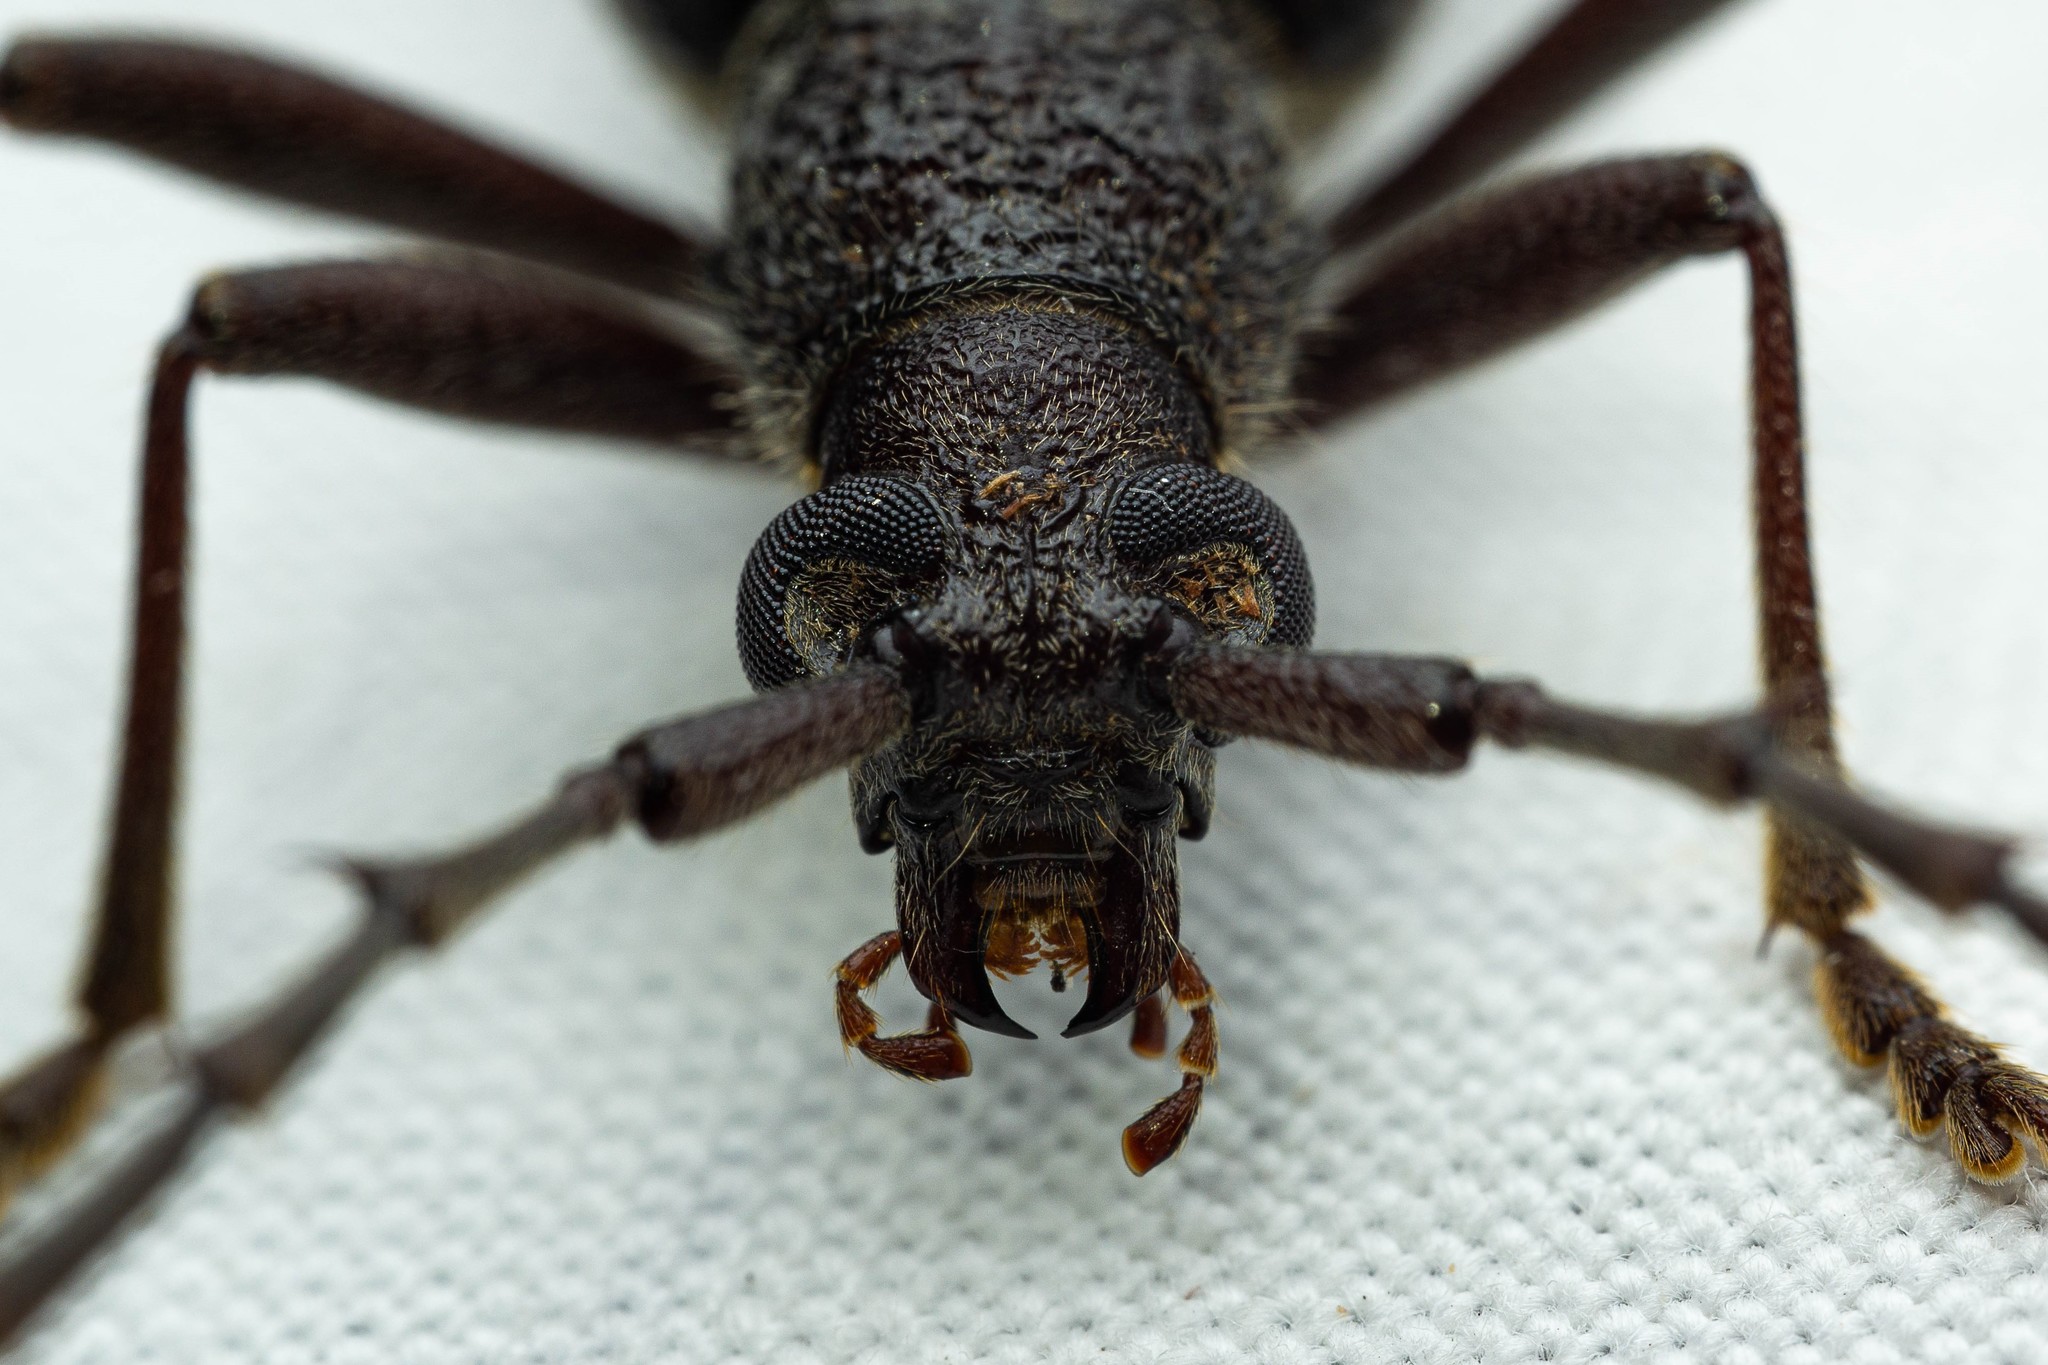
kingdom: Animalia
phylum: Arthropoda
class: Insecta
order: Coleoptera
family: Cerambycidae
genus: Aneflus
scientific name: Aneflus calvatus
